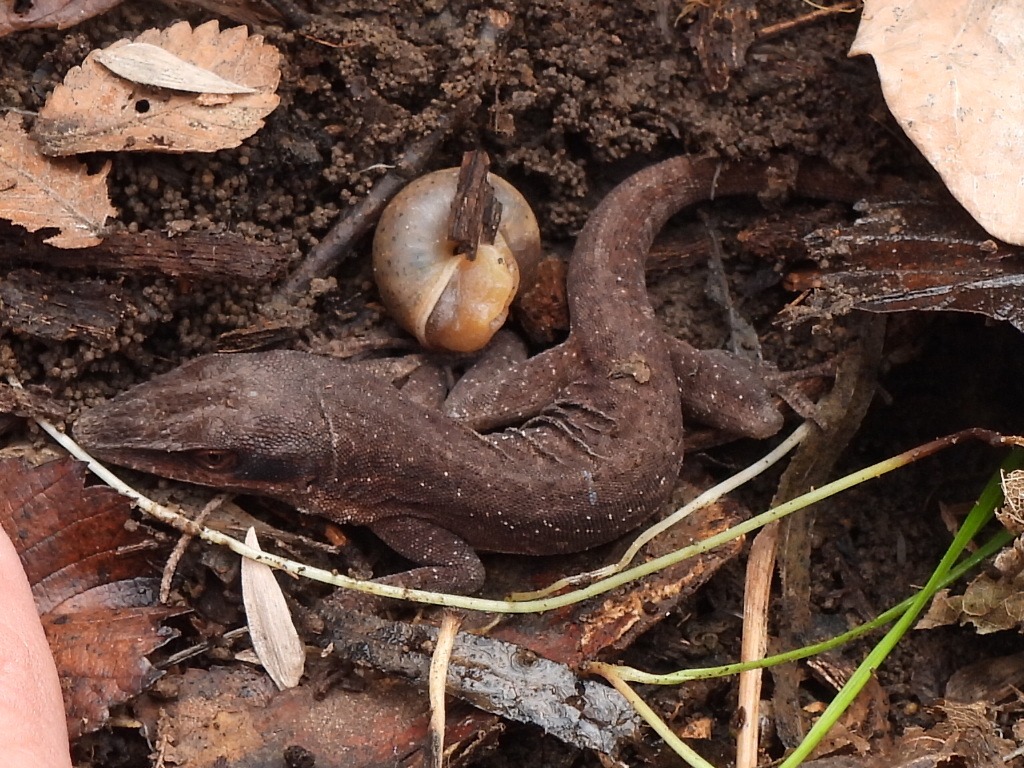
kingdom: Animalia
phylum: Chordata
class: Squamata
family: Dactyloidae
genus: Anolis
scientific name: Anolis carolinensis
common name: Green anole
